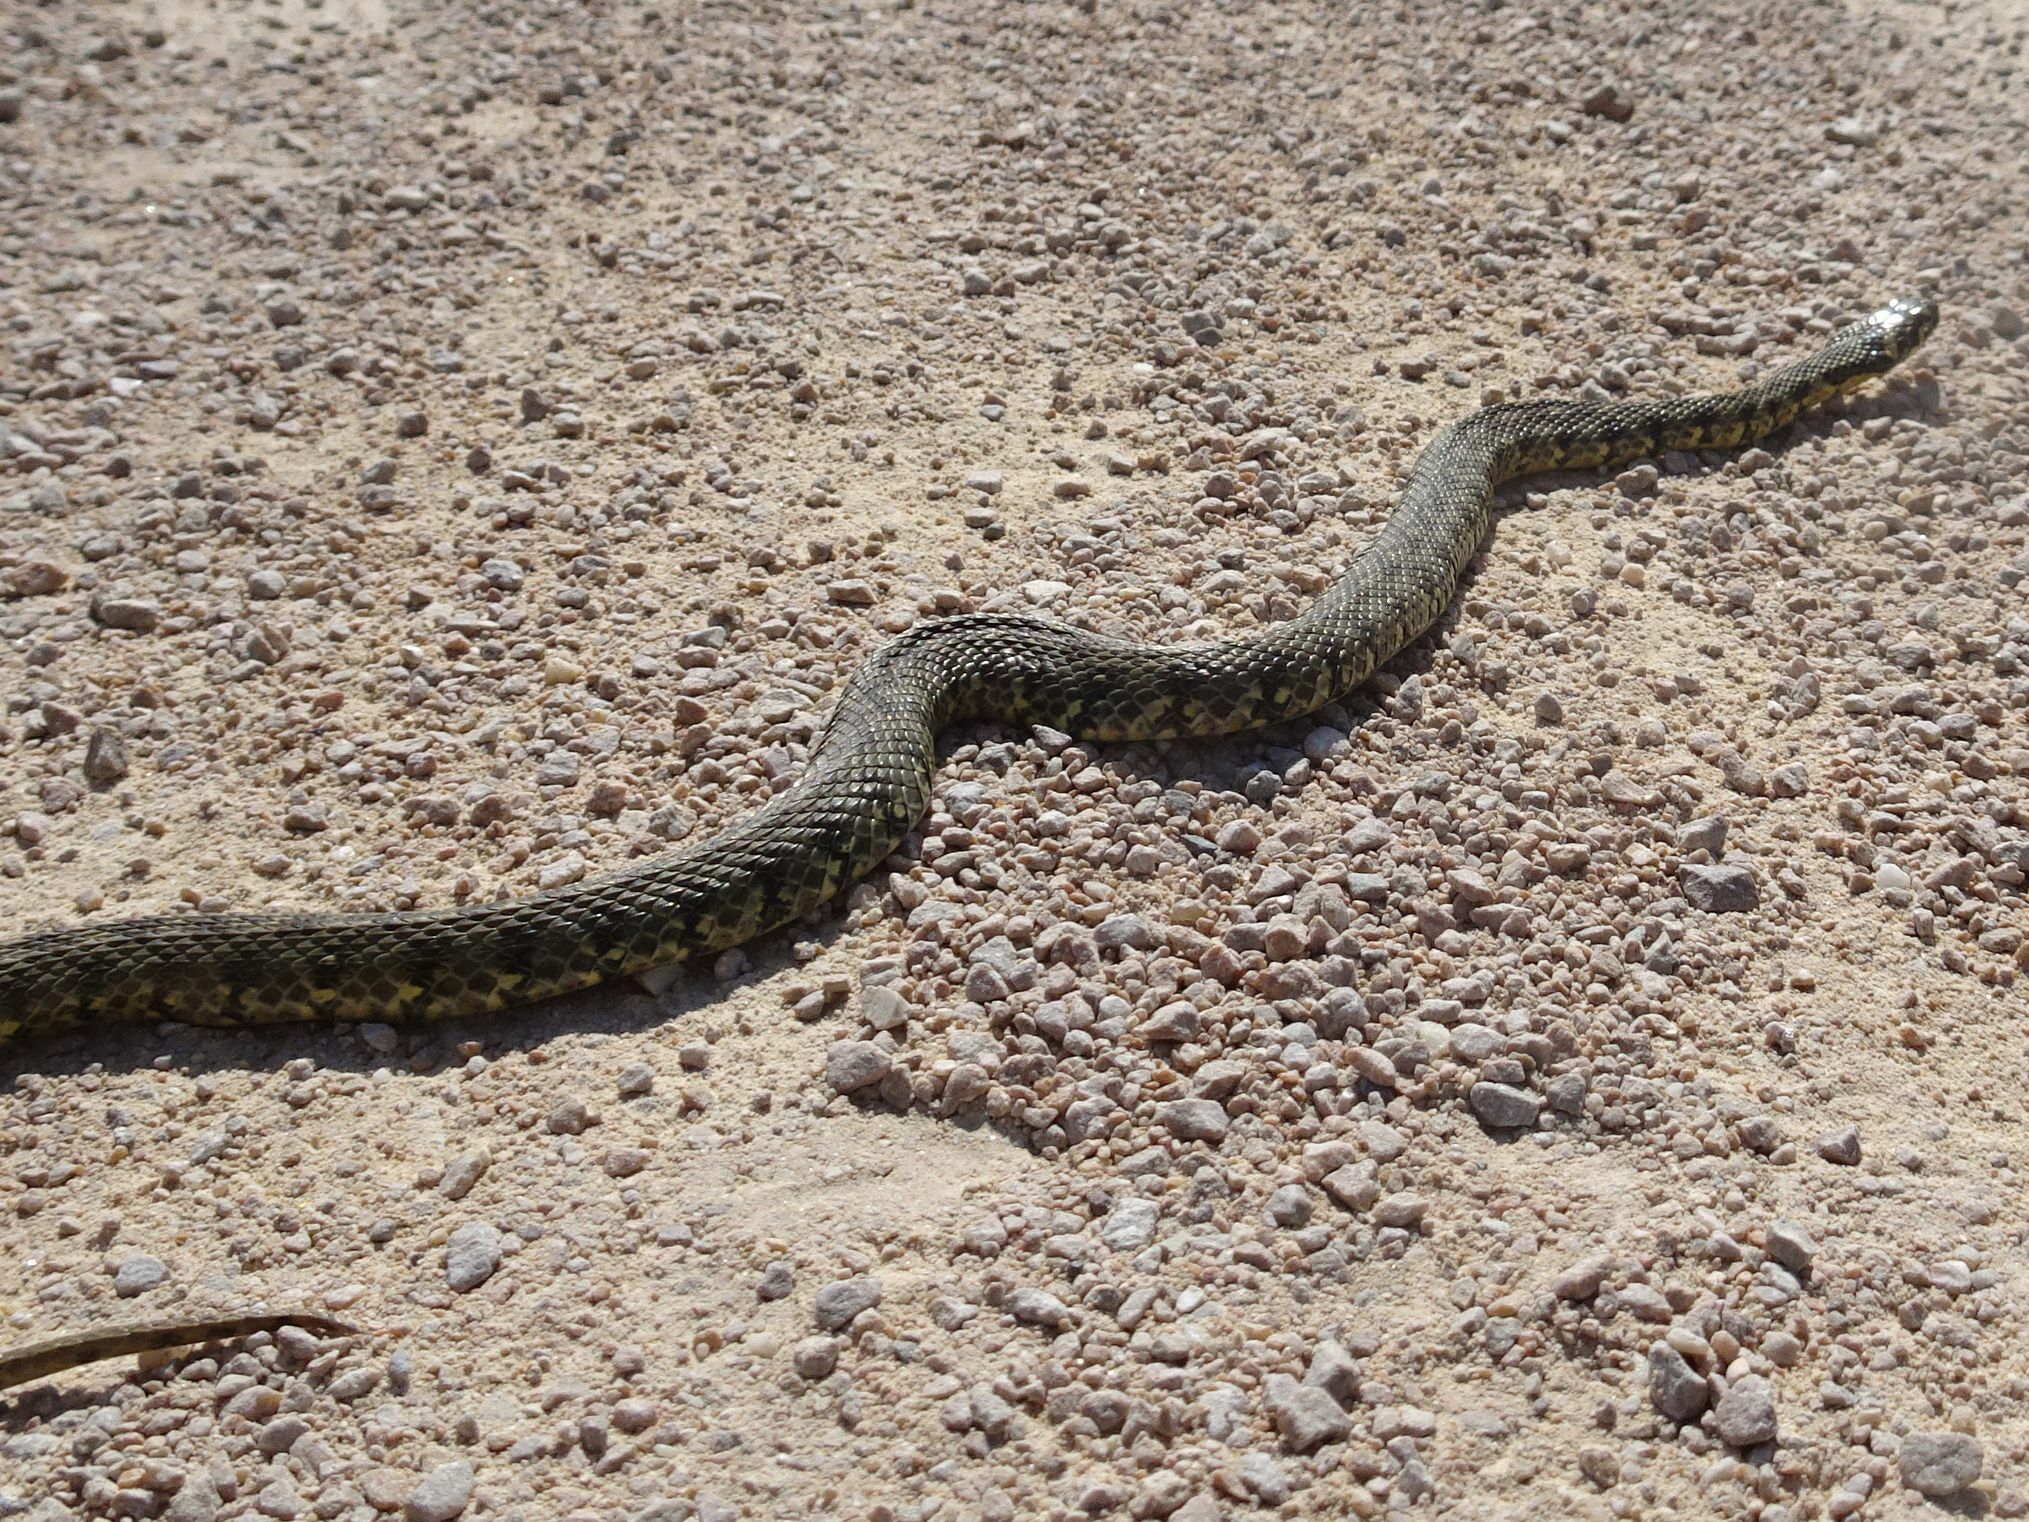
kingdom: Animalia
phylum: Chordata
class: Squamata
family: Colubridae
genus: Natrix
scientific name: Natrix maura
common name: Viperine water snake
